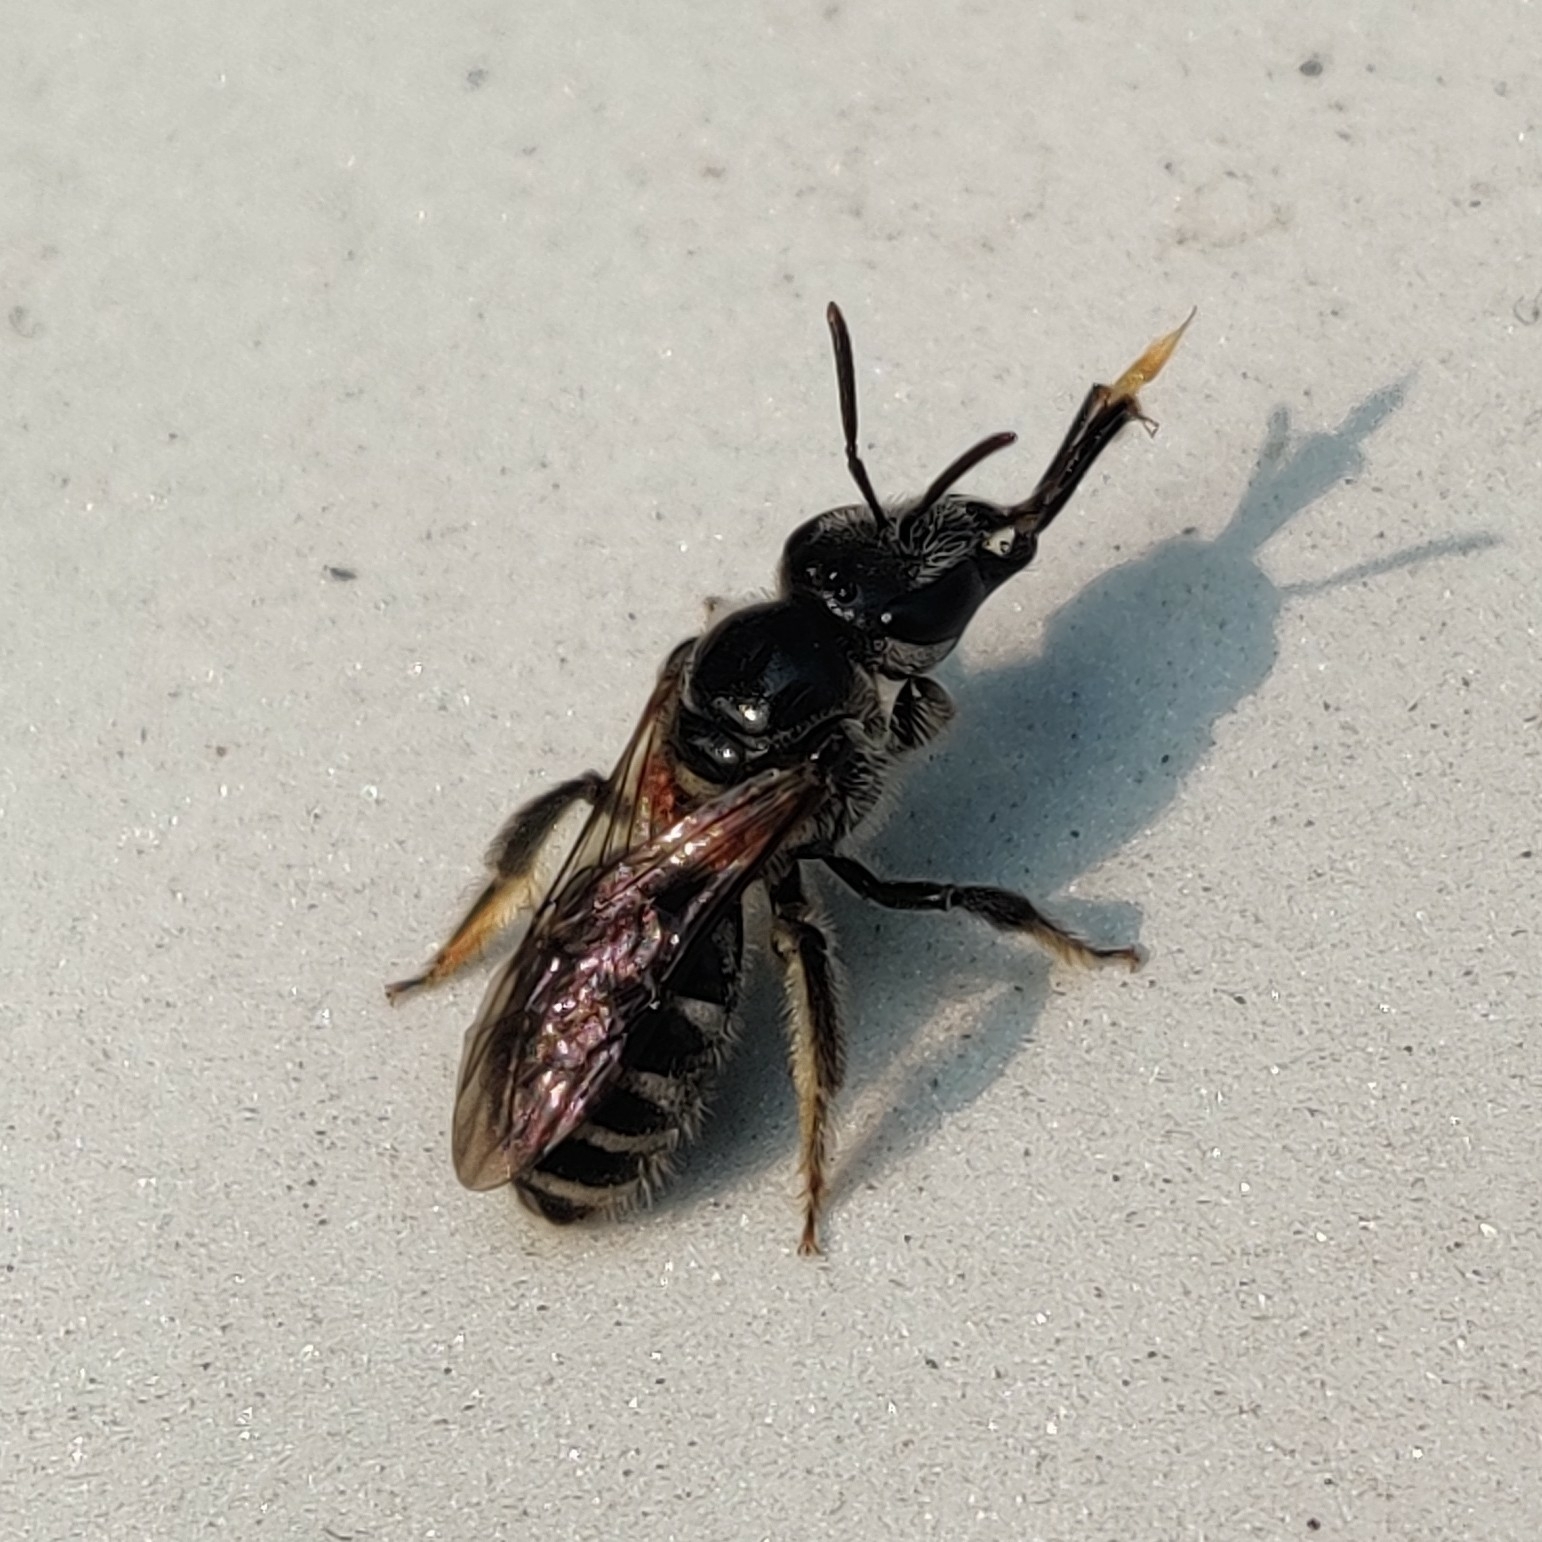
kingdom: Animalia
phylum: Arthropoda
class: Insecta
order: Hymenoptera
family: Halictidae
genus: Lasioglossum
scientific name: Lasioglossum albescens
